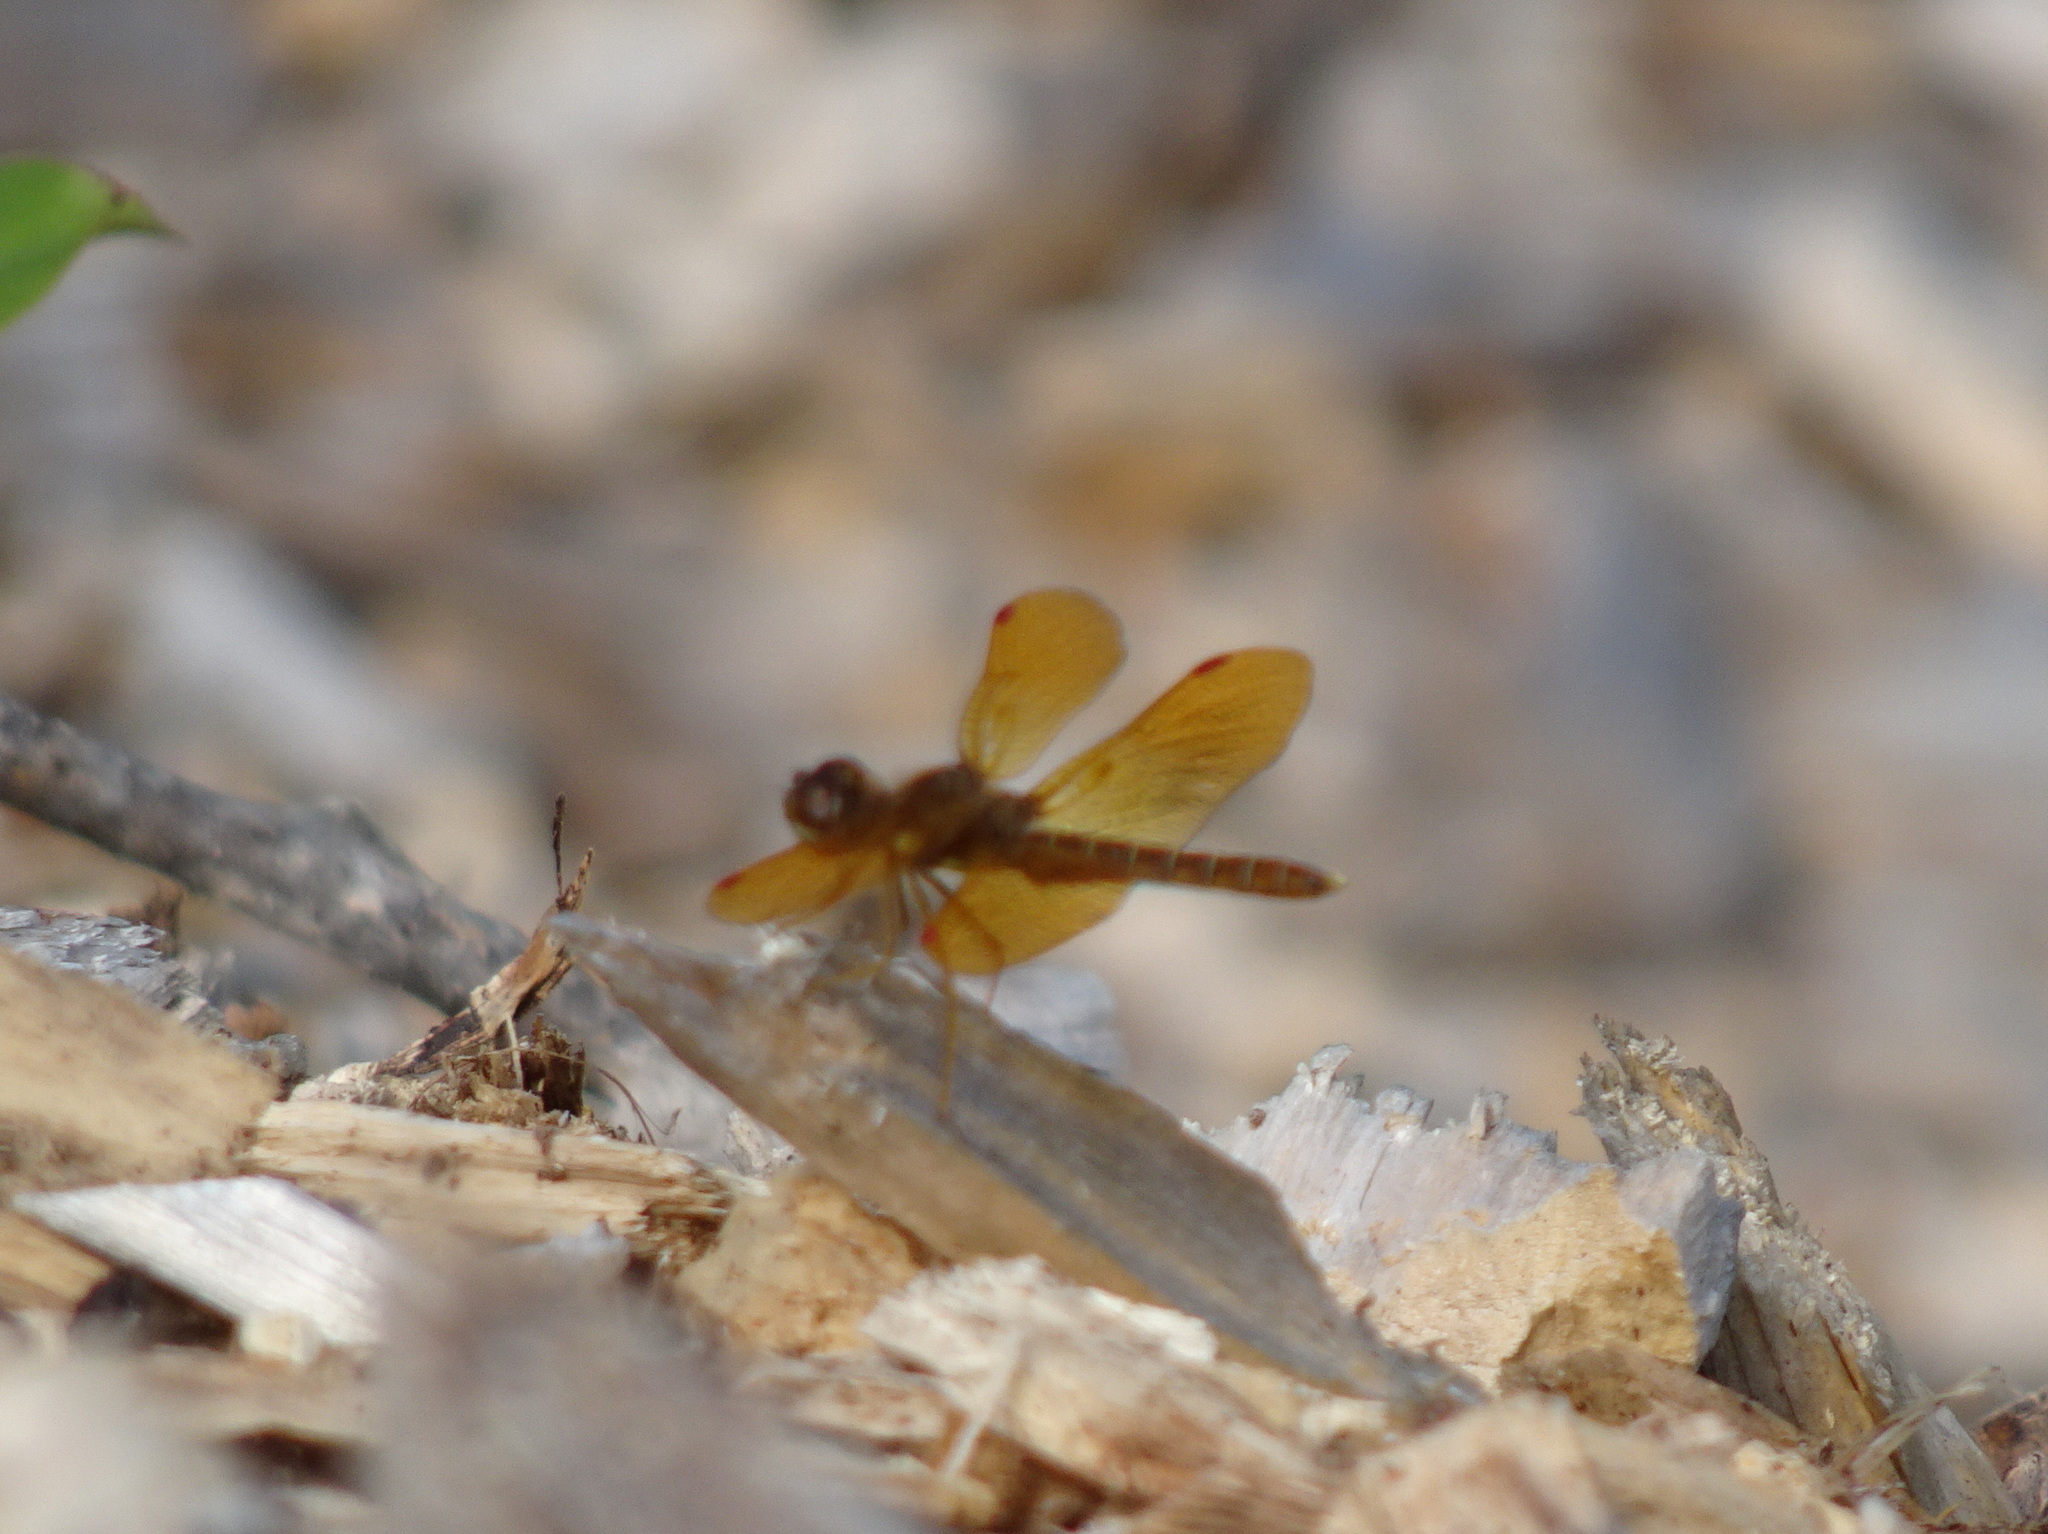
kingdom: Animalia
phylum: Arthropoda
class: Insecta
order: Odonata
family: Libellulidae
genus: Perithemis
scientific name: Perithemis tenera
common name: Eastern amberwing
